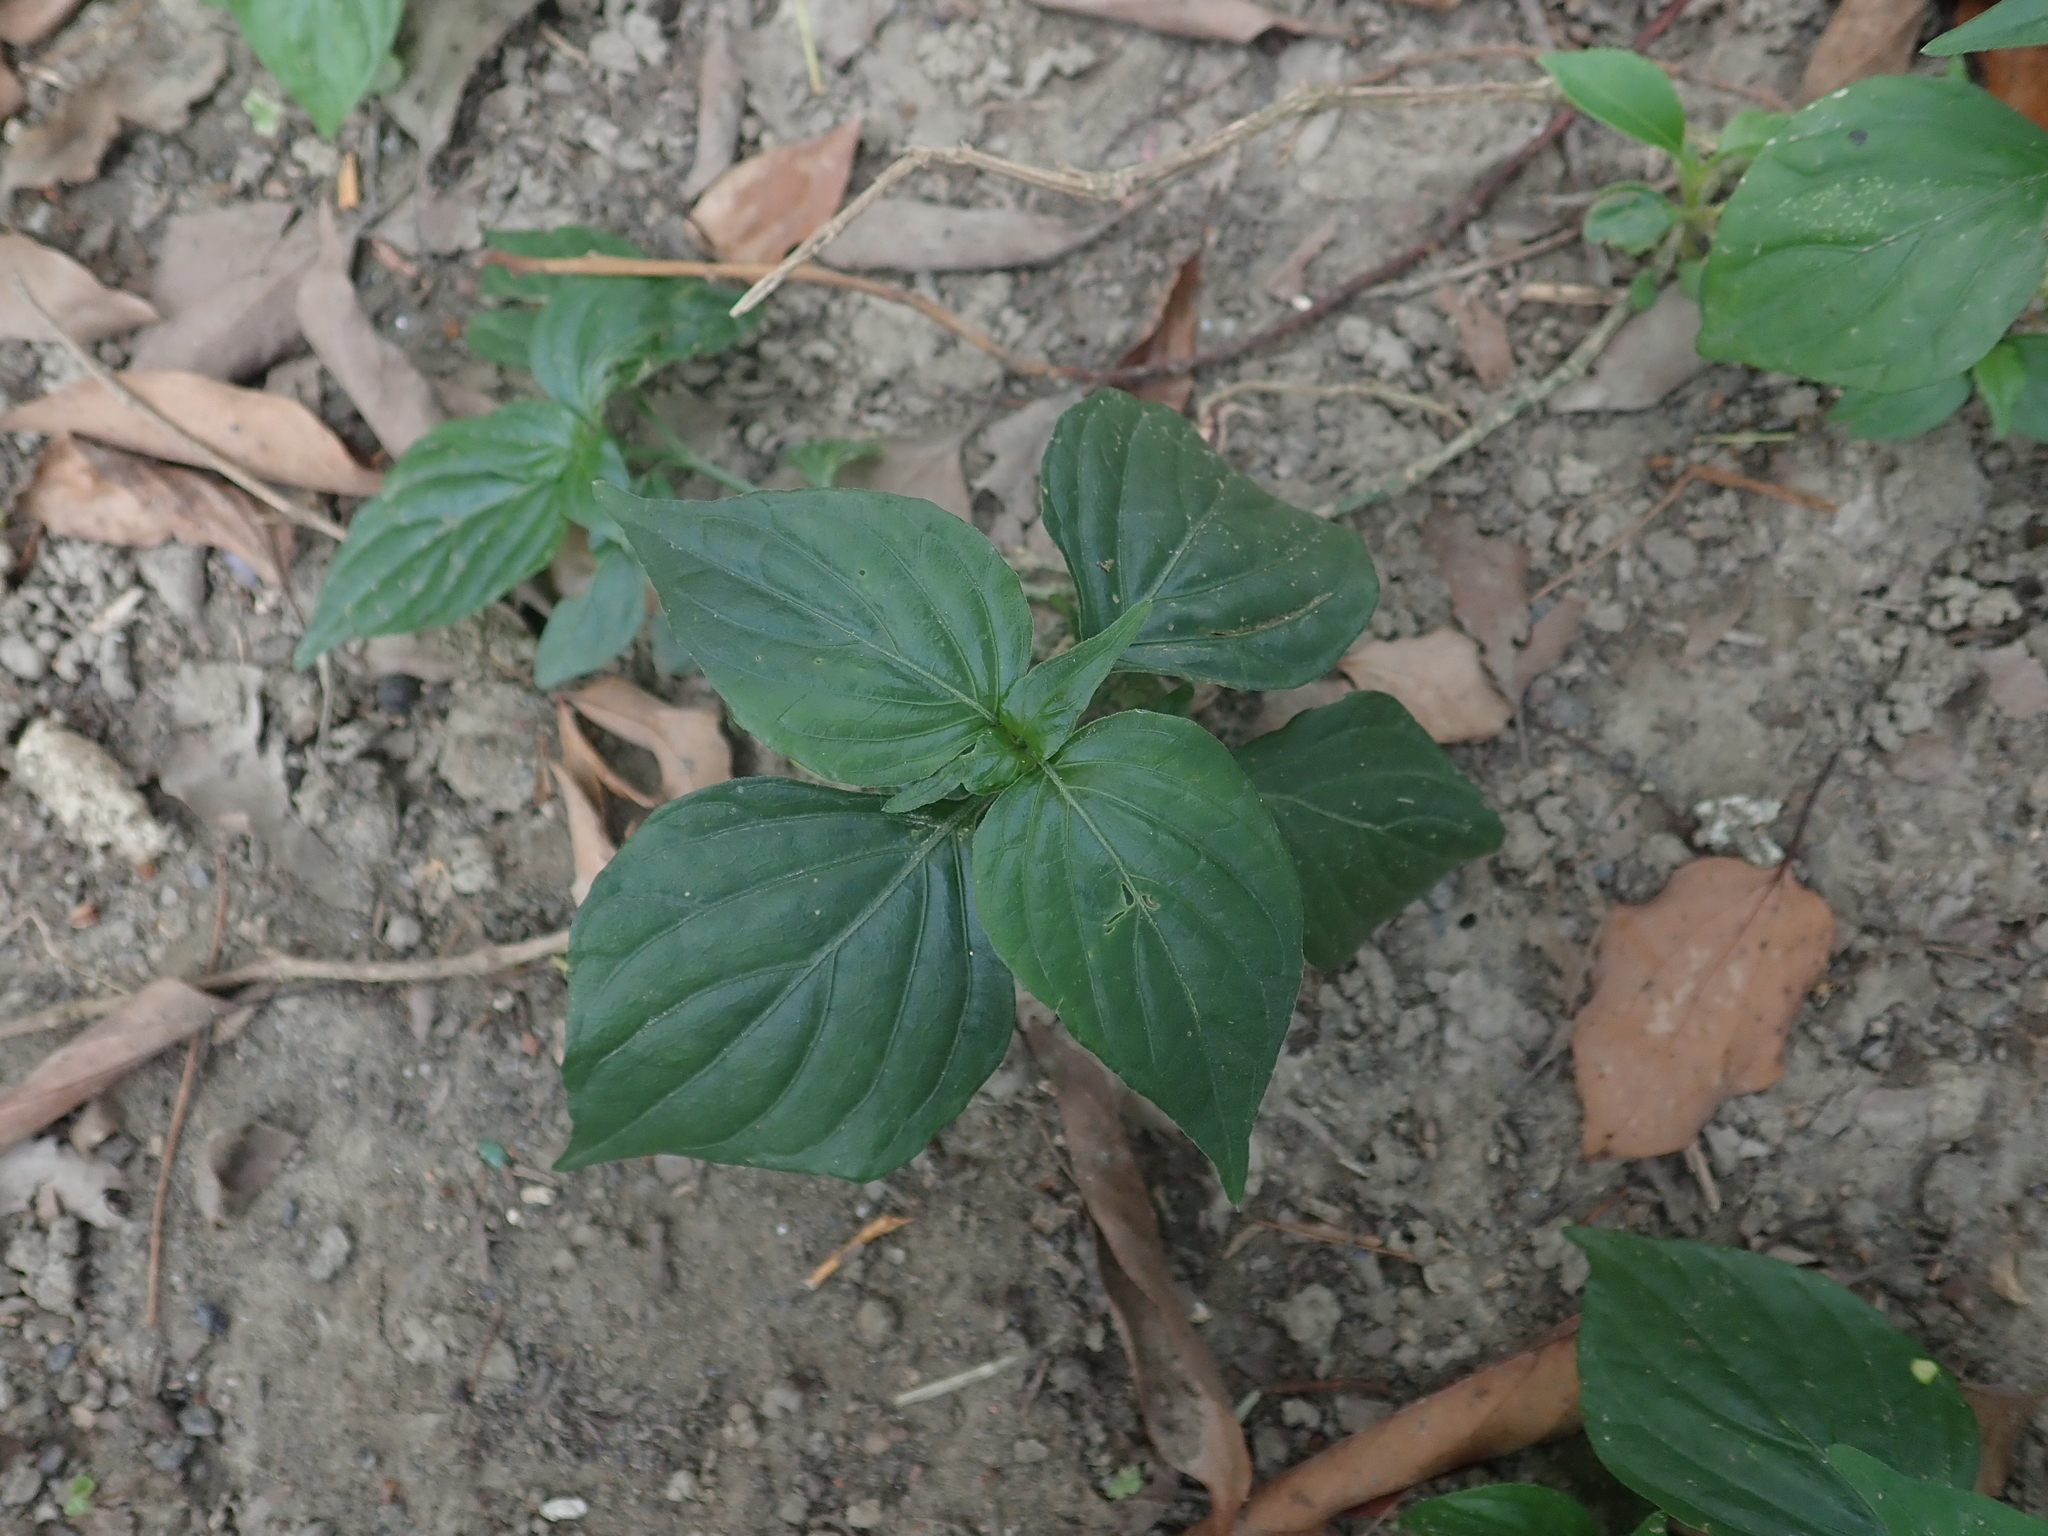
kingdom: Plantae
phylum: Tracheophyta
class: Magnoliopsida
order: Lamiales
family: Acanthaceae
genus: Dicliptera
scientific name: Dicliptera chinensis
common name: Chinese foldwing
